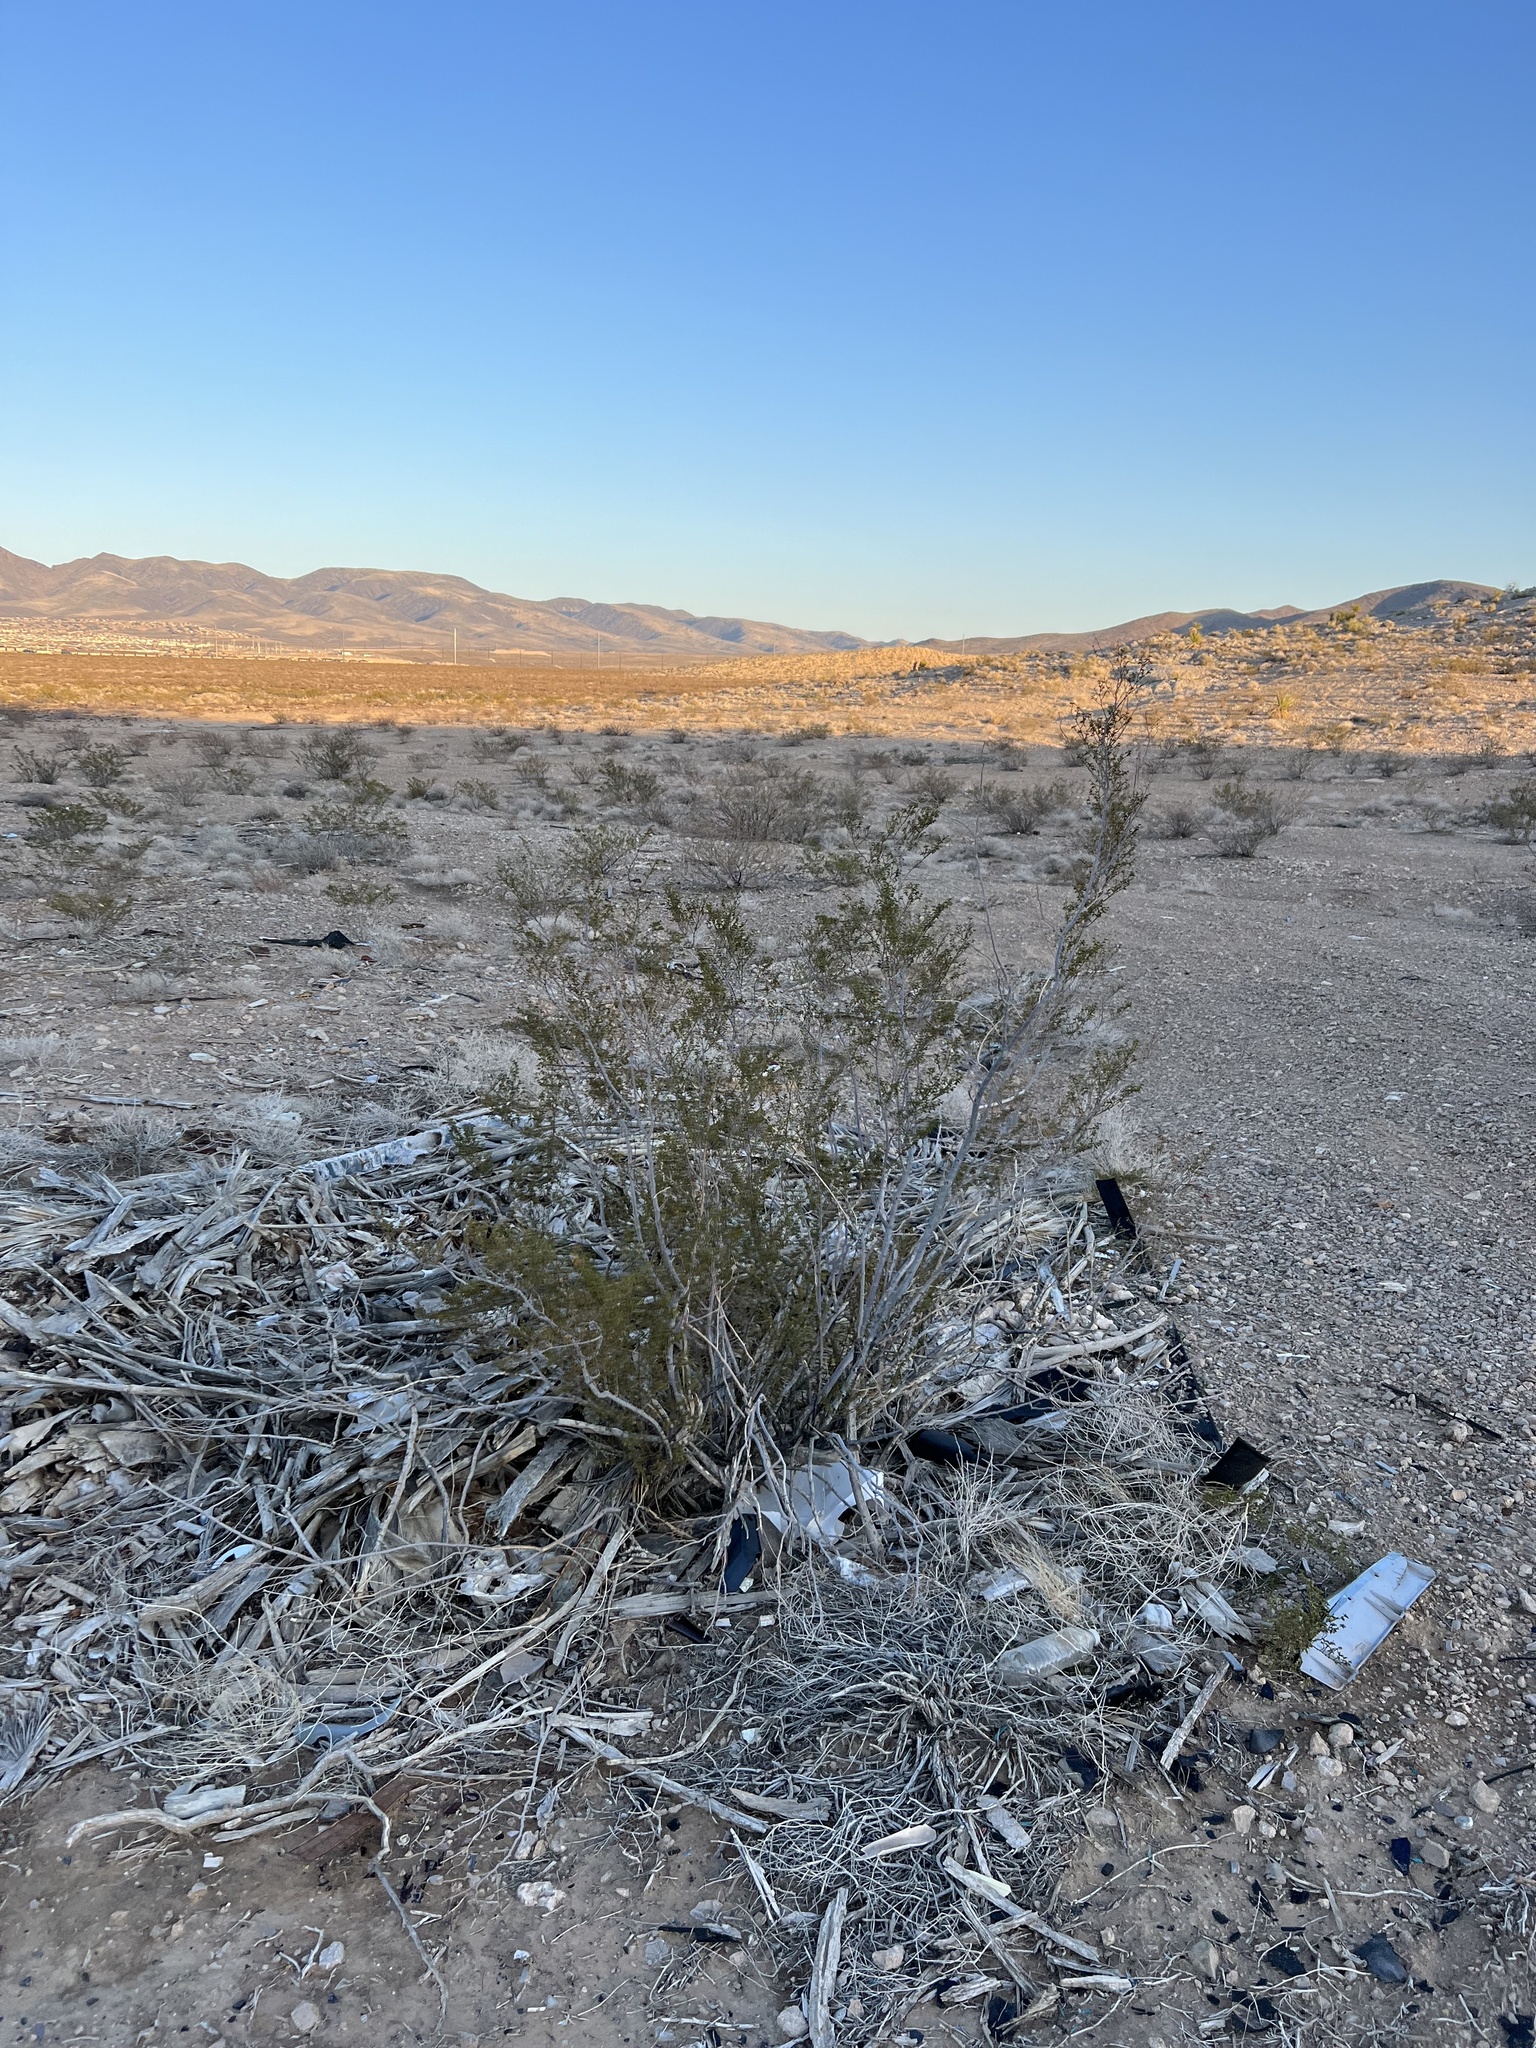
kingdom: Plantae
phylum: Tracheophyta
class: Magnoliopsida
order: Zygophyllales
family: Zygophyllaceae
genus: Larrea
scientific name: Larrea tridentata
